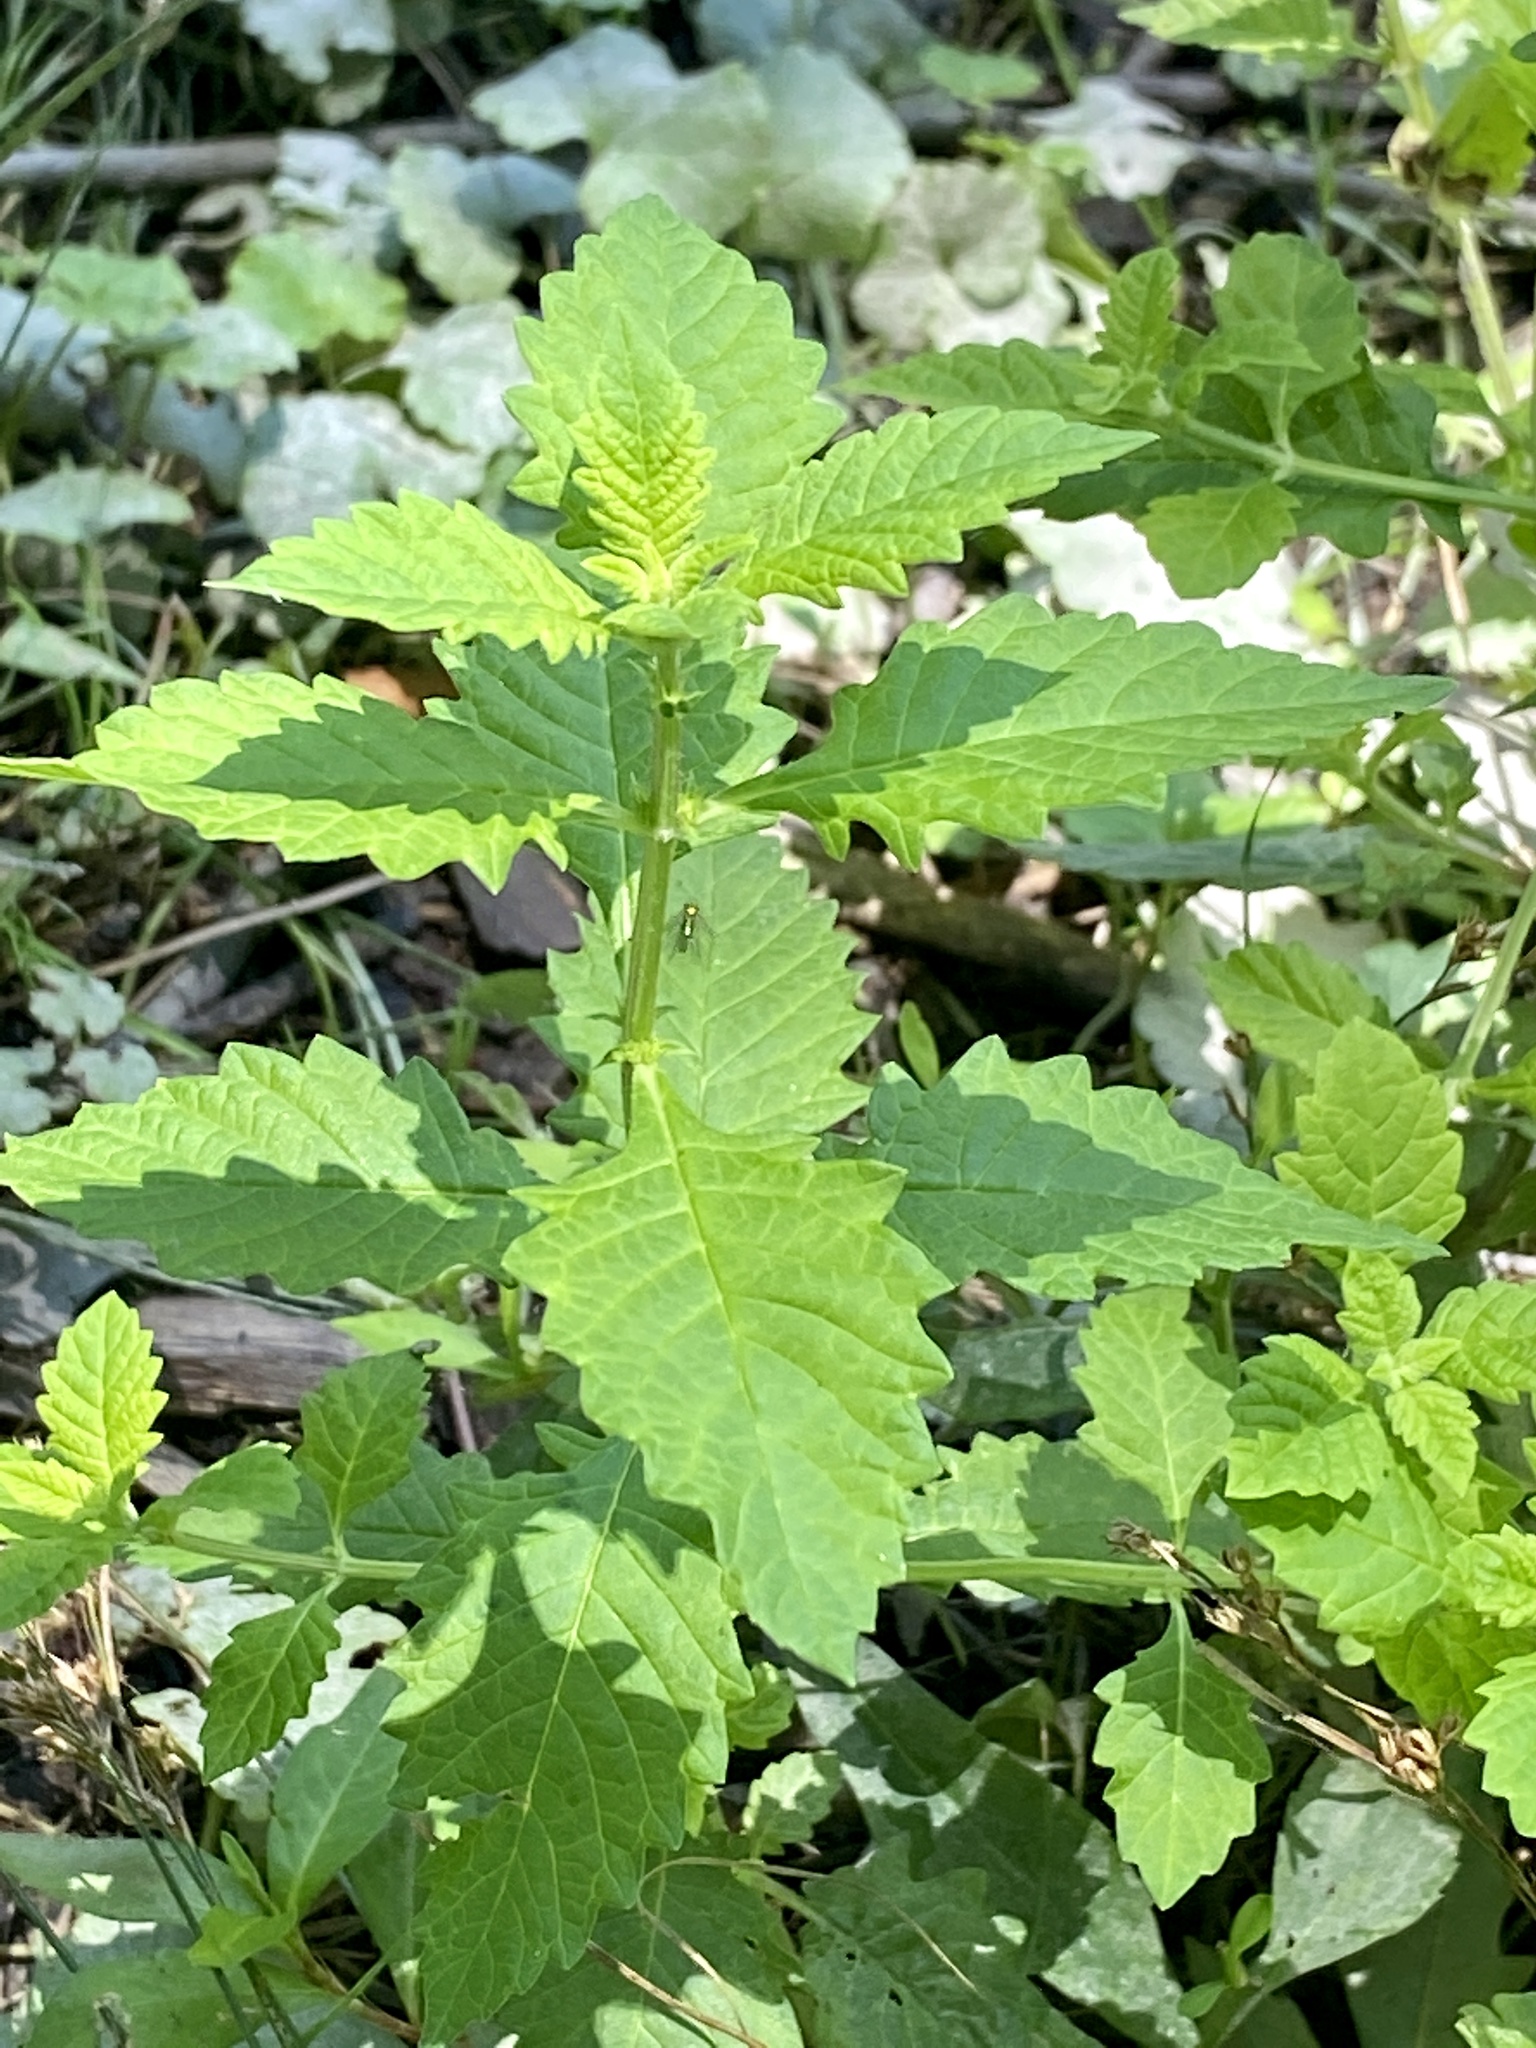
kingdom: Plantae
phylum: Tracheophyta
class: Magnoliopsida
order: Lamiales
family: Lamiaceae
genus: Lycopus
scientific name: Lycopus europaeus
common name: European bugleweed
